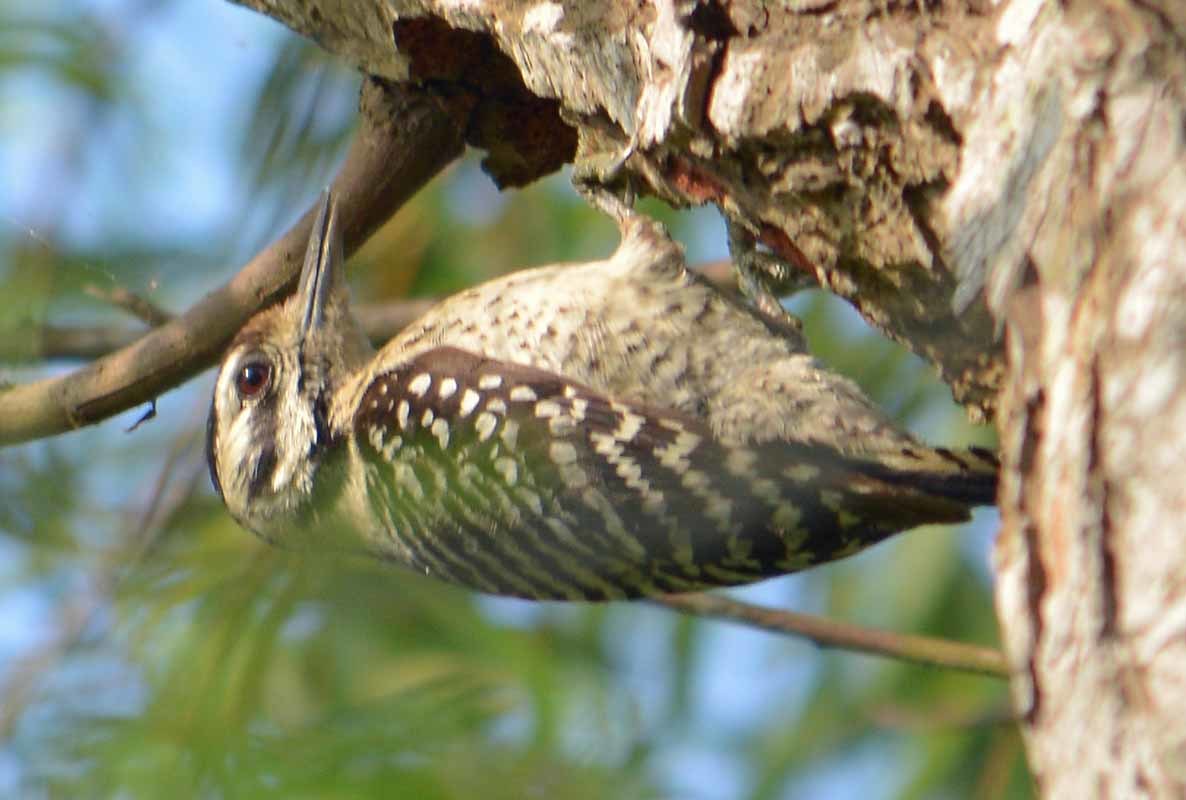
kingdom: Animalia
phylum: Chordata
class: Aves
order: Piciformes
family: Picidae
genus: Dryobates
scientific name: Dryobates scalaris
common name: Ladder-backed woodpecker
